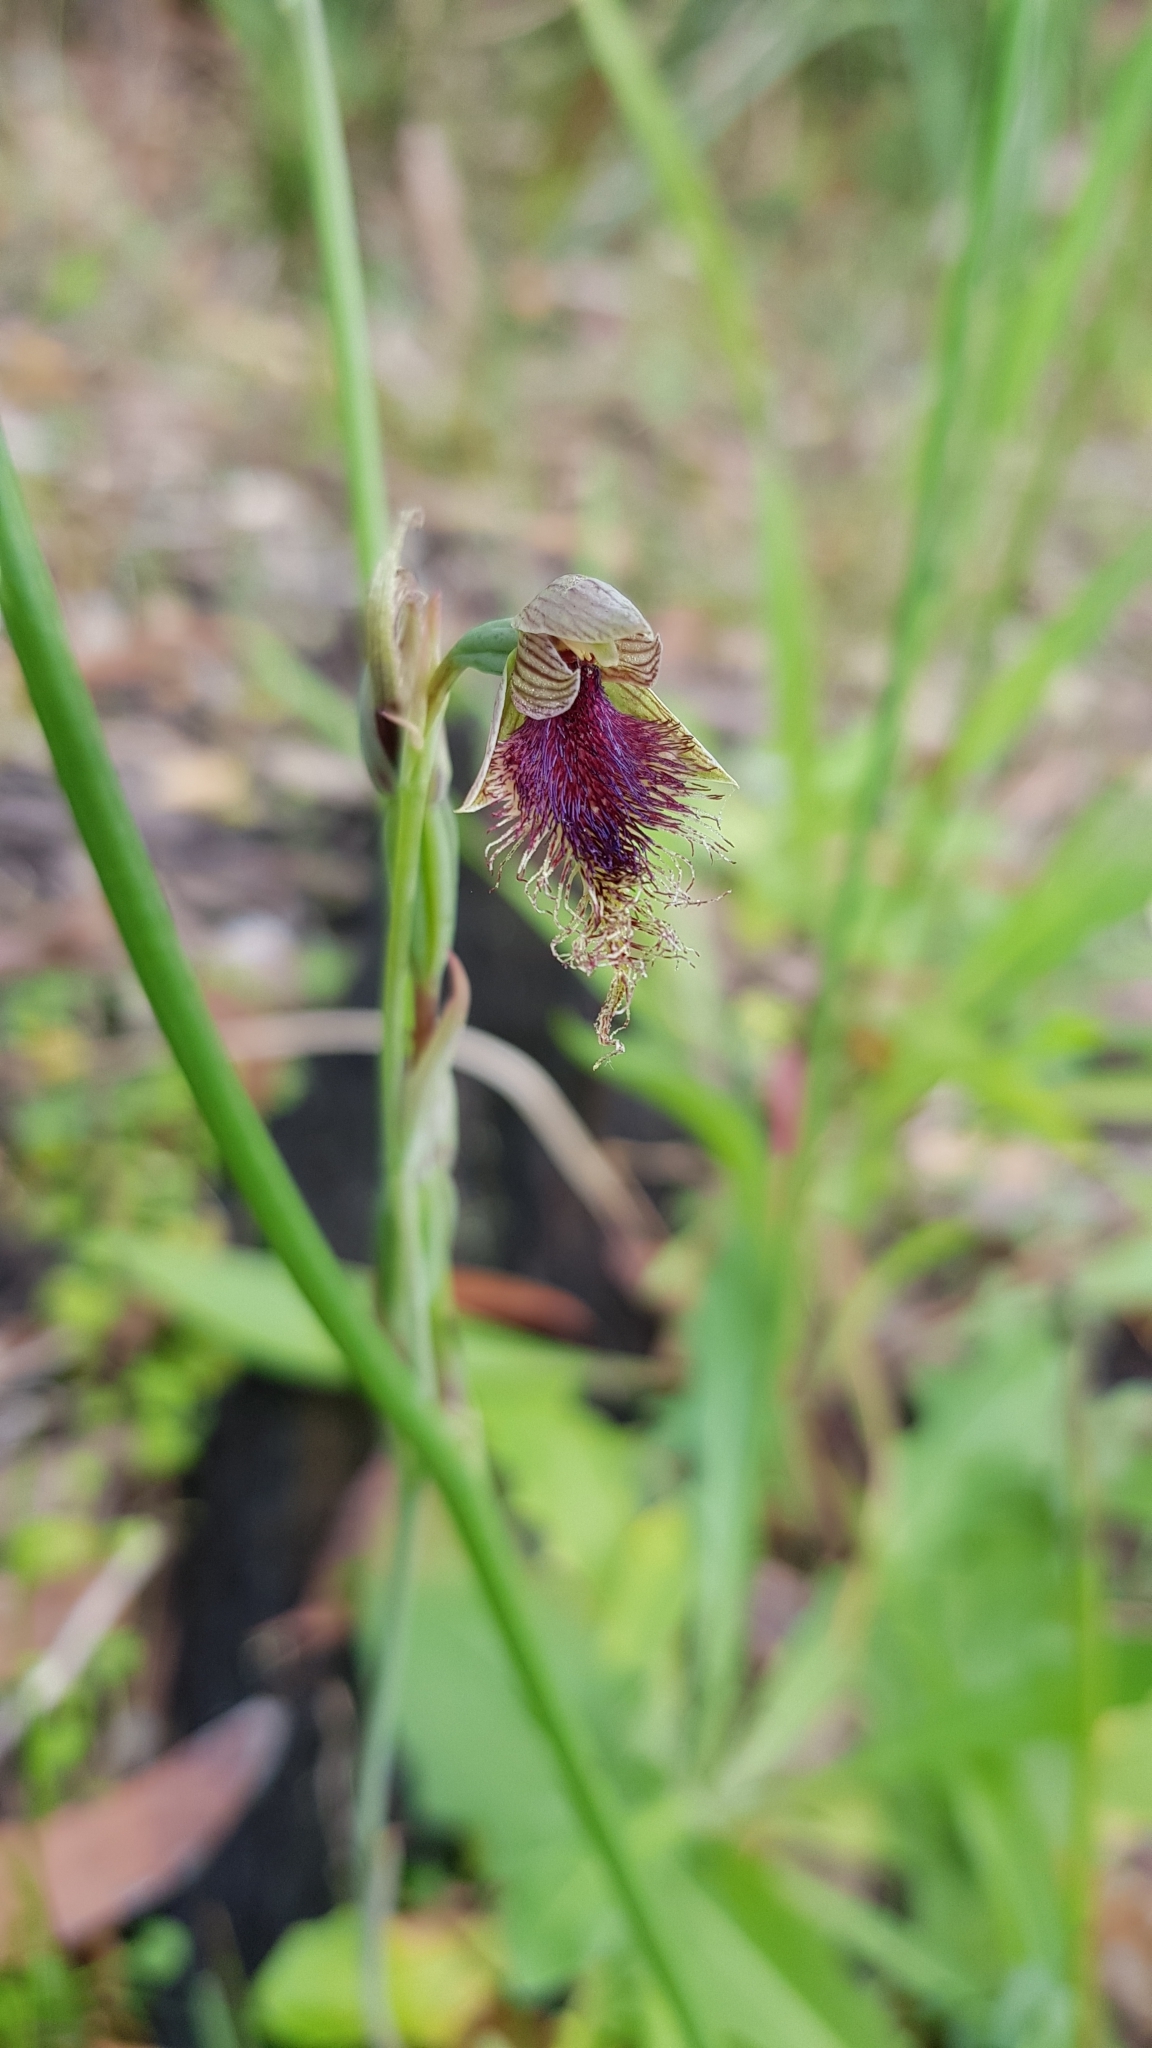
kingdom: Plantae
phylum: Tracheophyta
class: Liliopsida
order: Asparagales
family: Orchidaceae
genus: Calochilus
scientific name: Calochilus robertsonii
